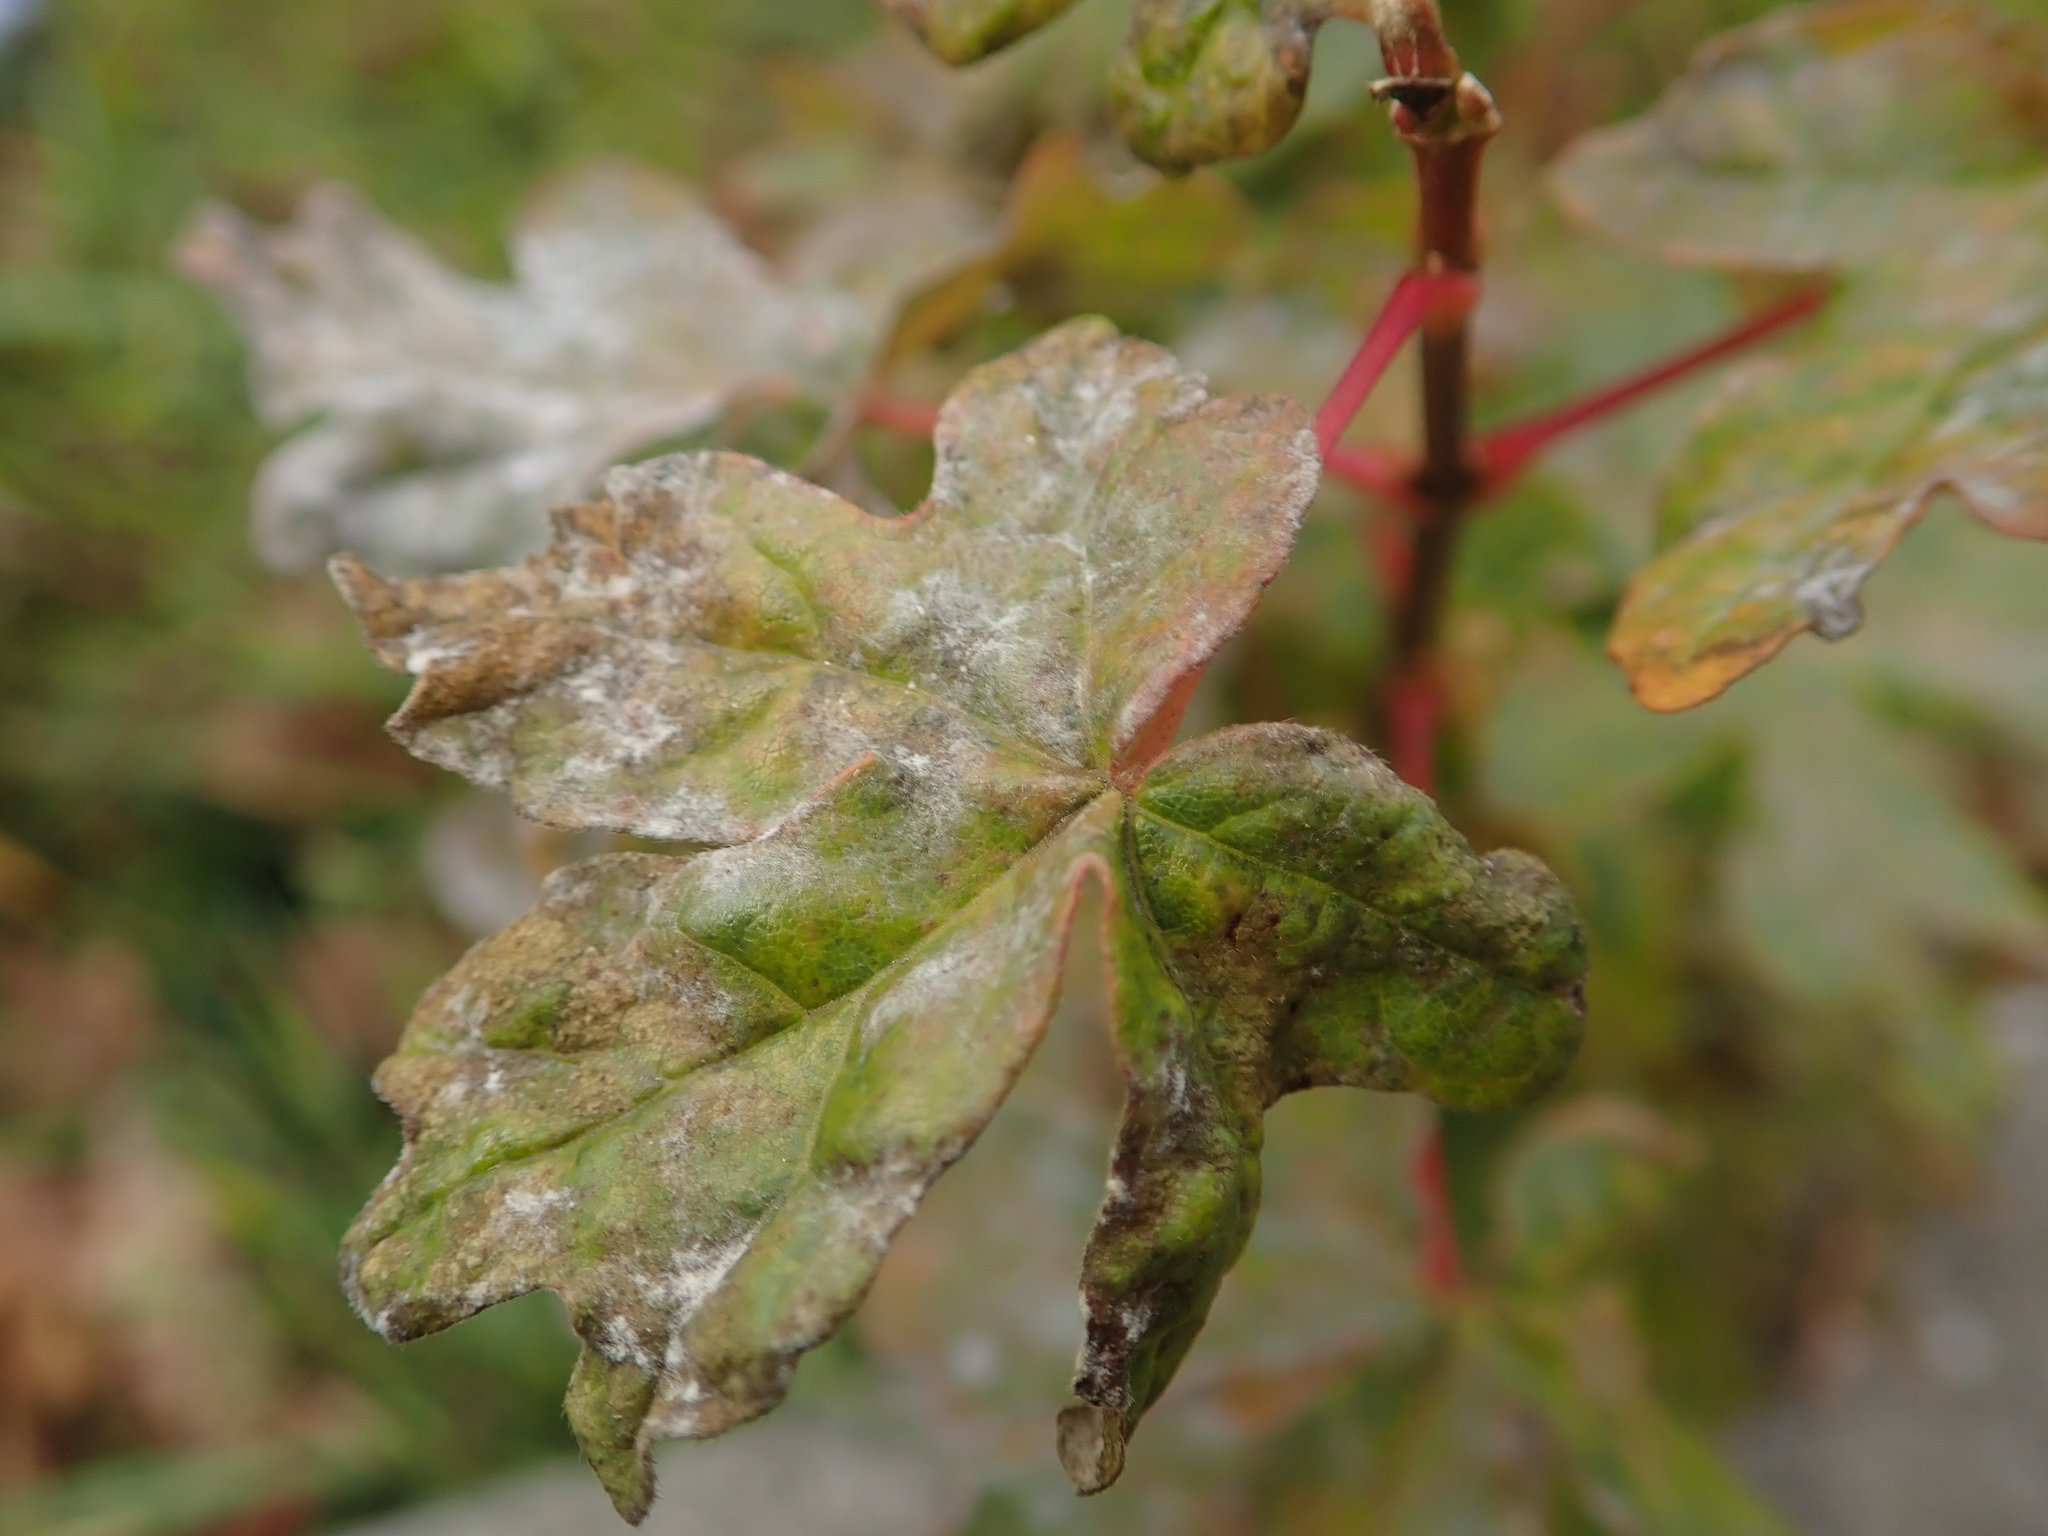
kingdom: Plantae
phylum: Tracheophyta
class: Magnoliopsida
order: Sapindales
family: Sapindaceae
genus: Acer
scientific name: Acer campestre
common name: Field maple
